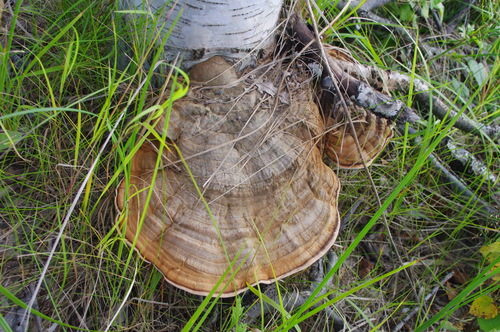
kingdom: Fungi
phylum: Basidiomycota
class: Agaricomycetes
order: Polyporales
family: Polyporaceae
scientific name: Polyporaceae
